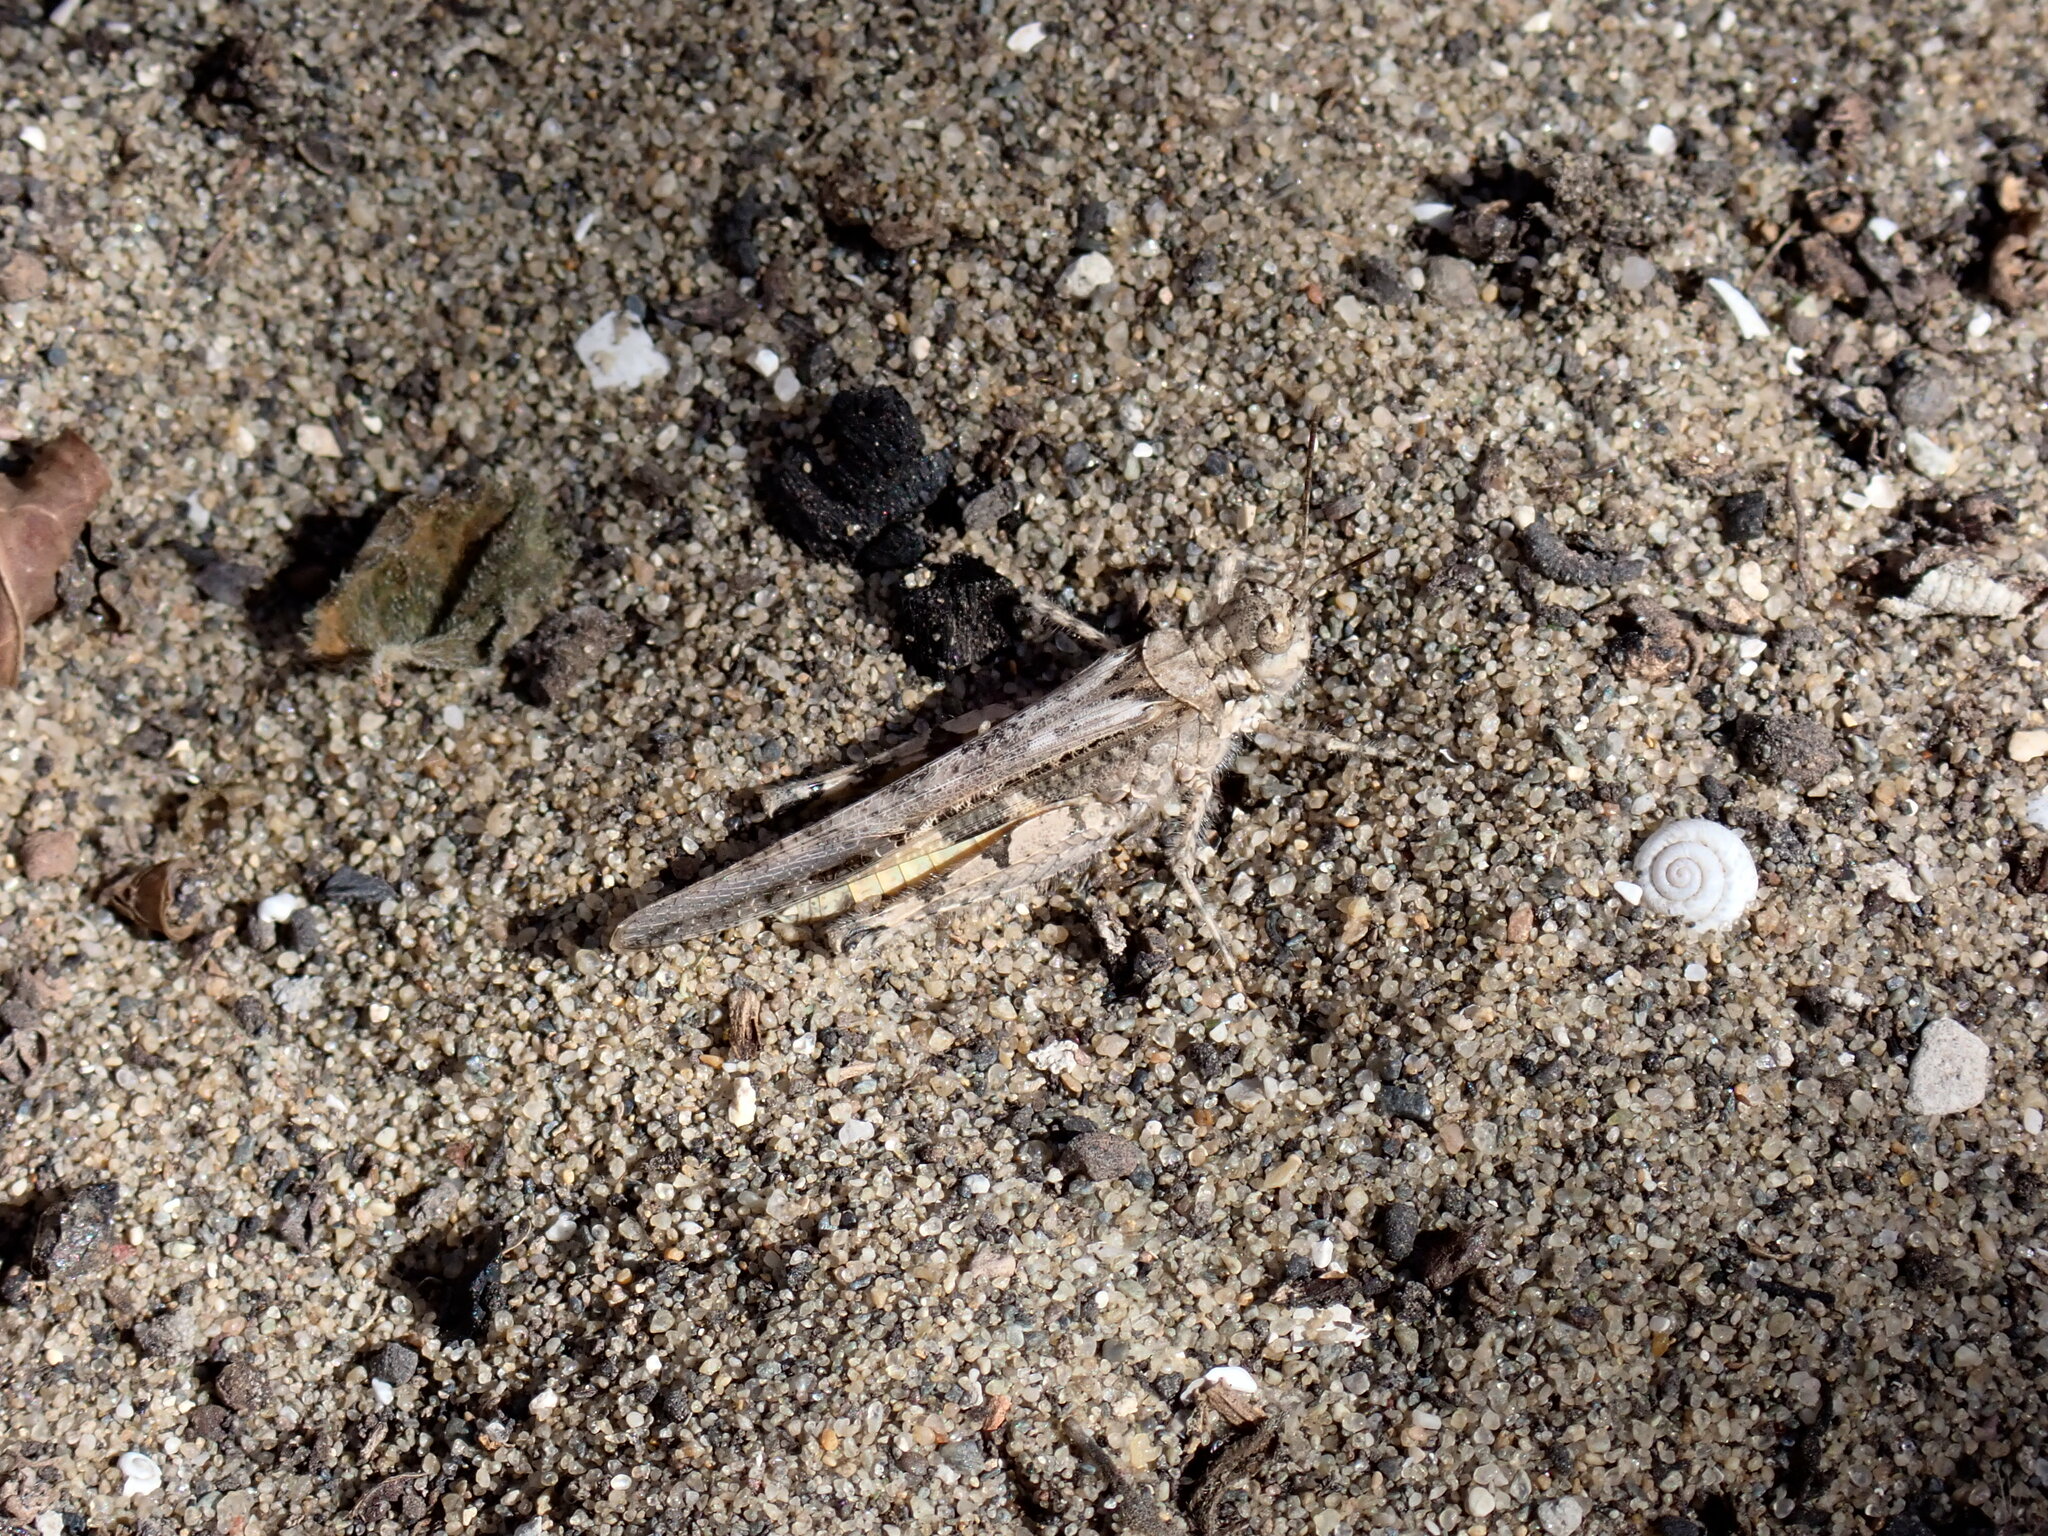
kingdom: Animalia
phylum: Arthropoda
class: Insecta
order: Orthoptera
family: Acrididae
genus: Acrotylus
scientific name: Acrotylus patruelis
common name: Slender burrowing grasshopper
